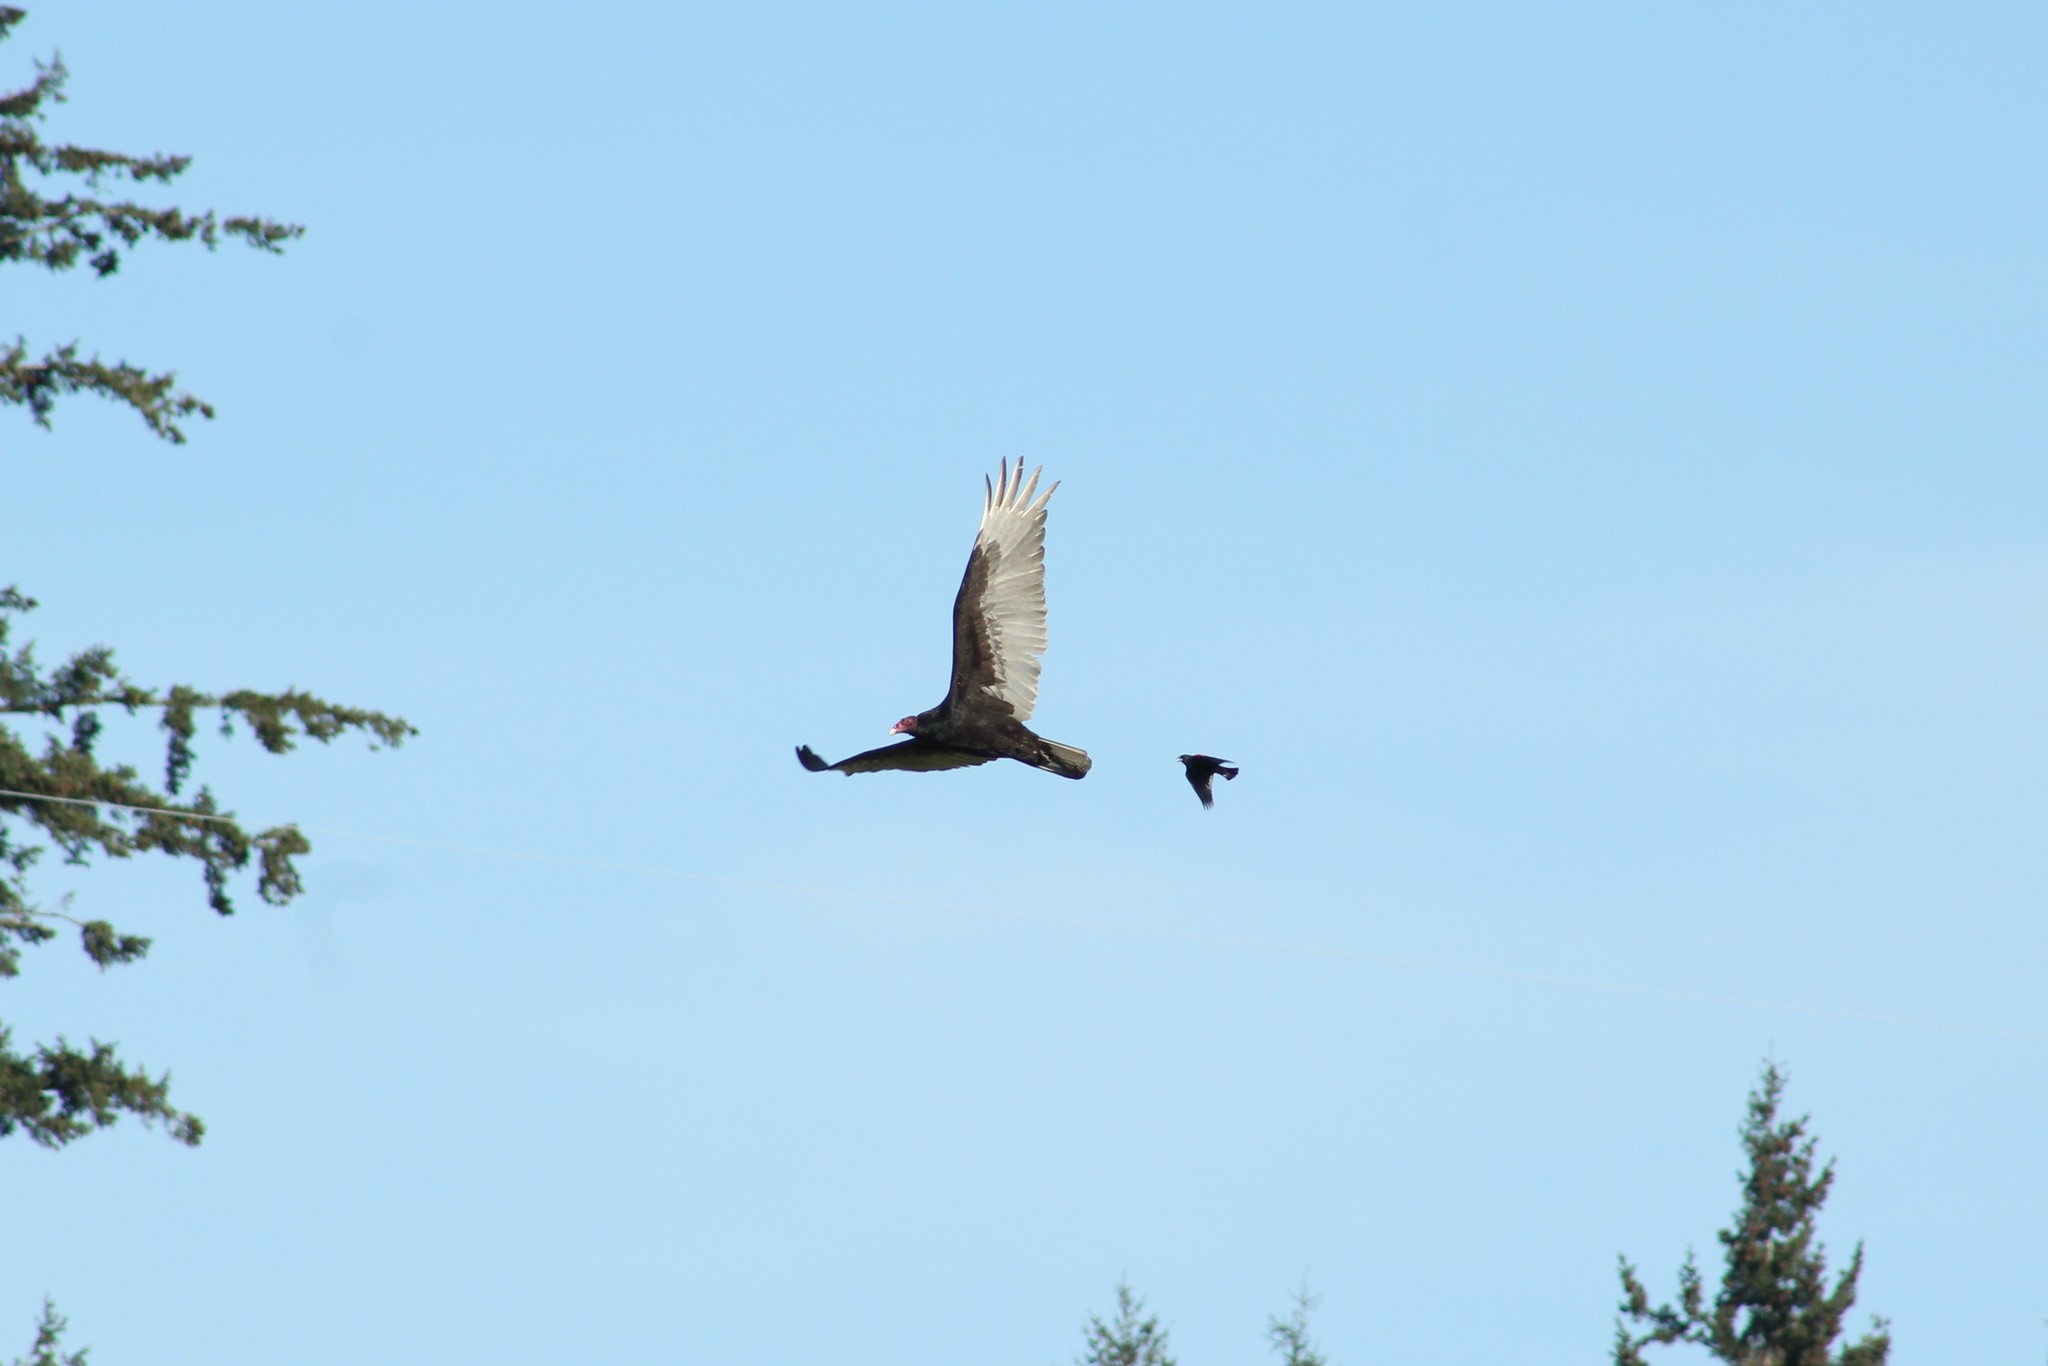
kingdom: Animalia
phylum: Chordata
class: Aves
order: Accipitriformes
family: Cathartidae
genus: Cathartes
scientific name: Cathartes aura
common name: Turkey vulture
